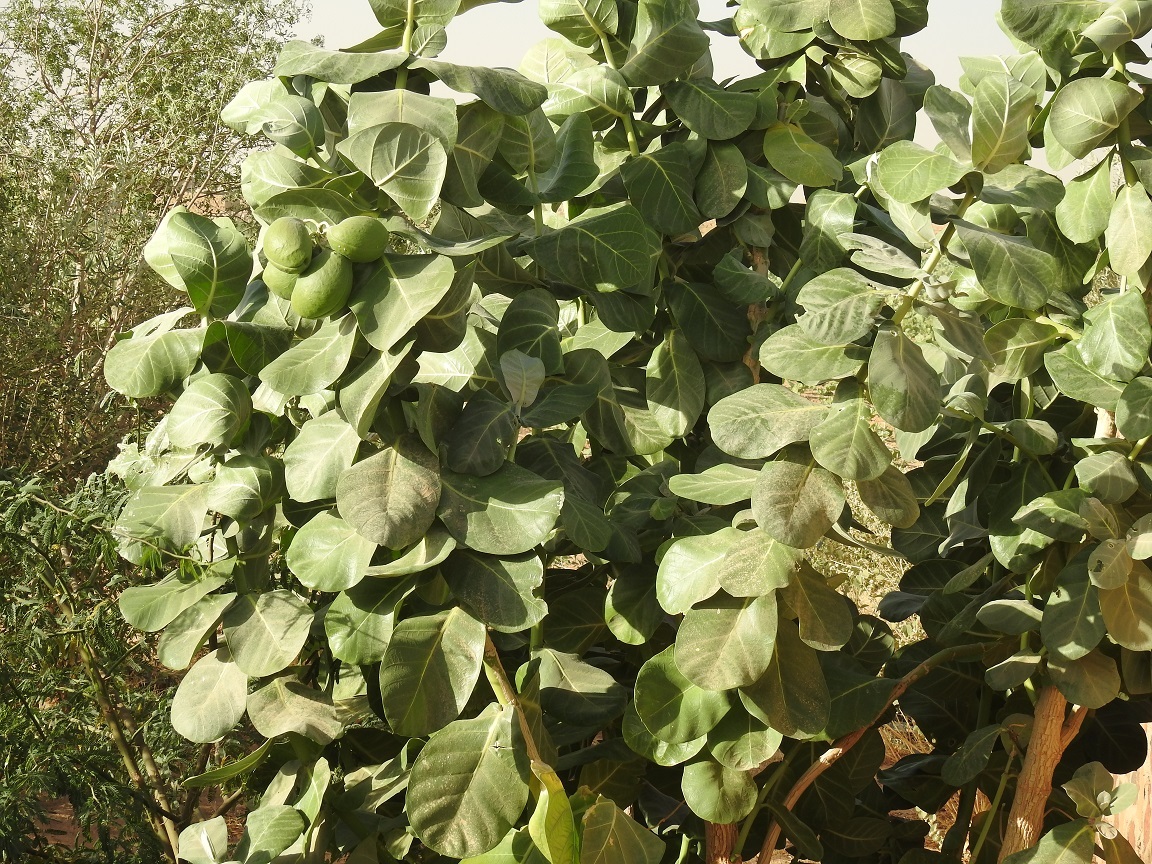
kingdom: Plantae
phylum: Tracheophyta
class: Magnoliopsida
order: Gentianales
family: Apocynaceae
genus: Calotropis
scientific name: Calotropis procera
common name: Roostertree
